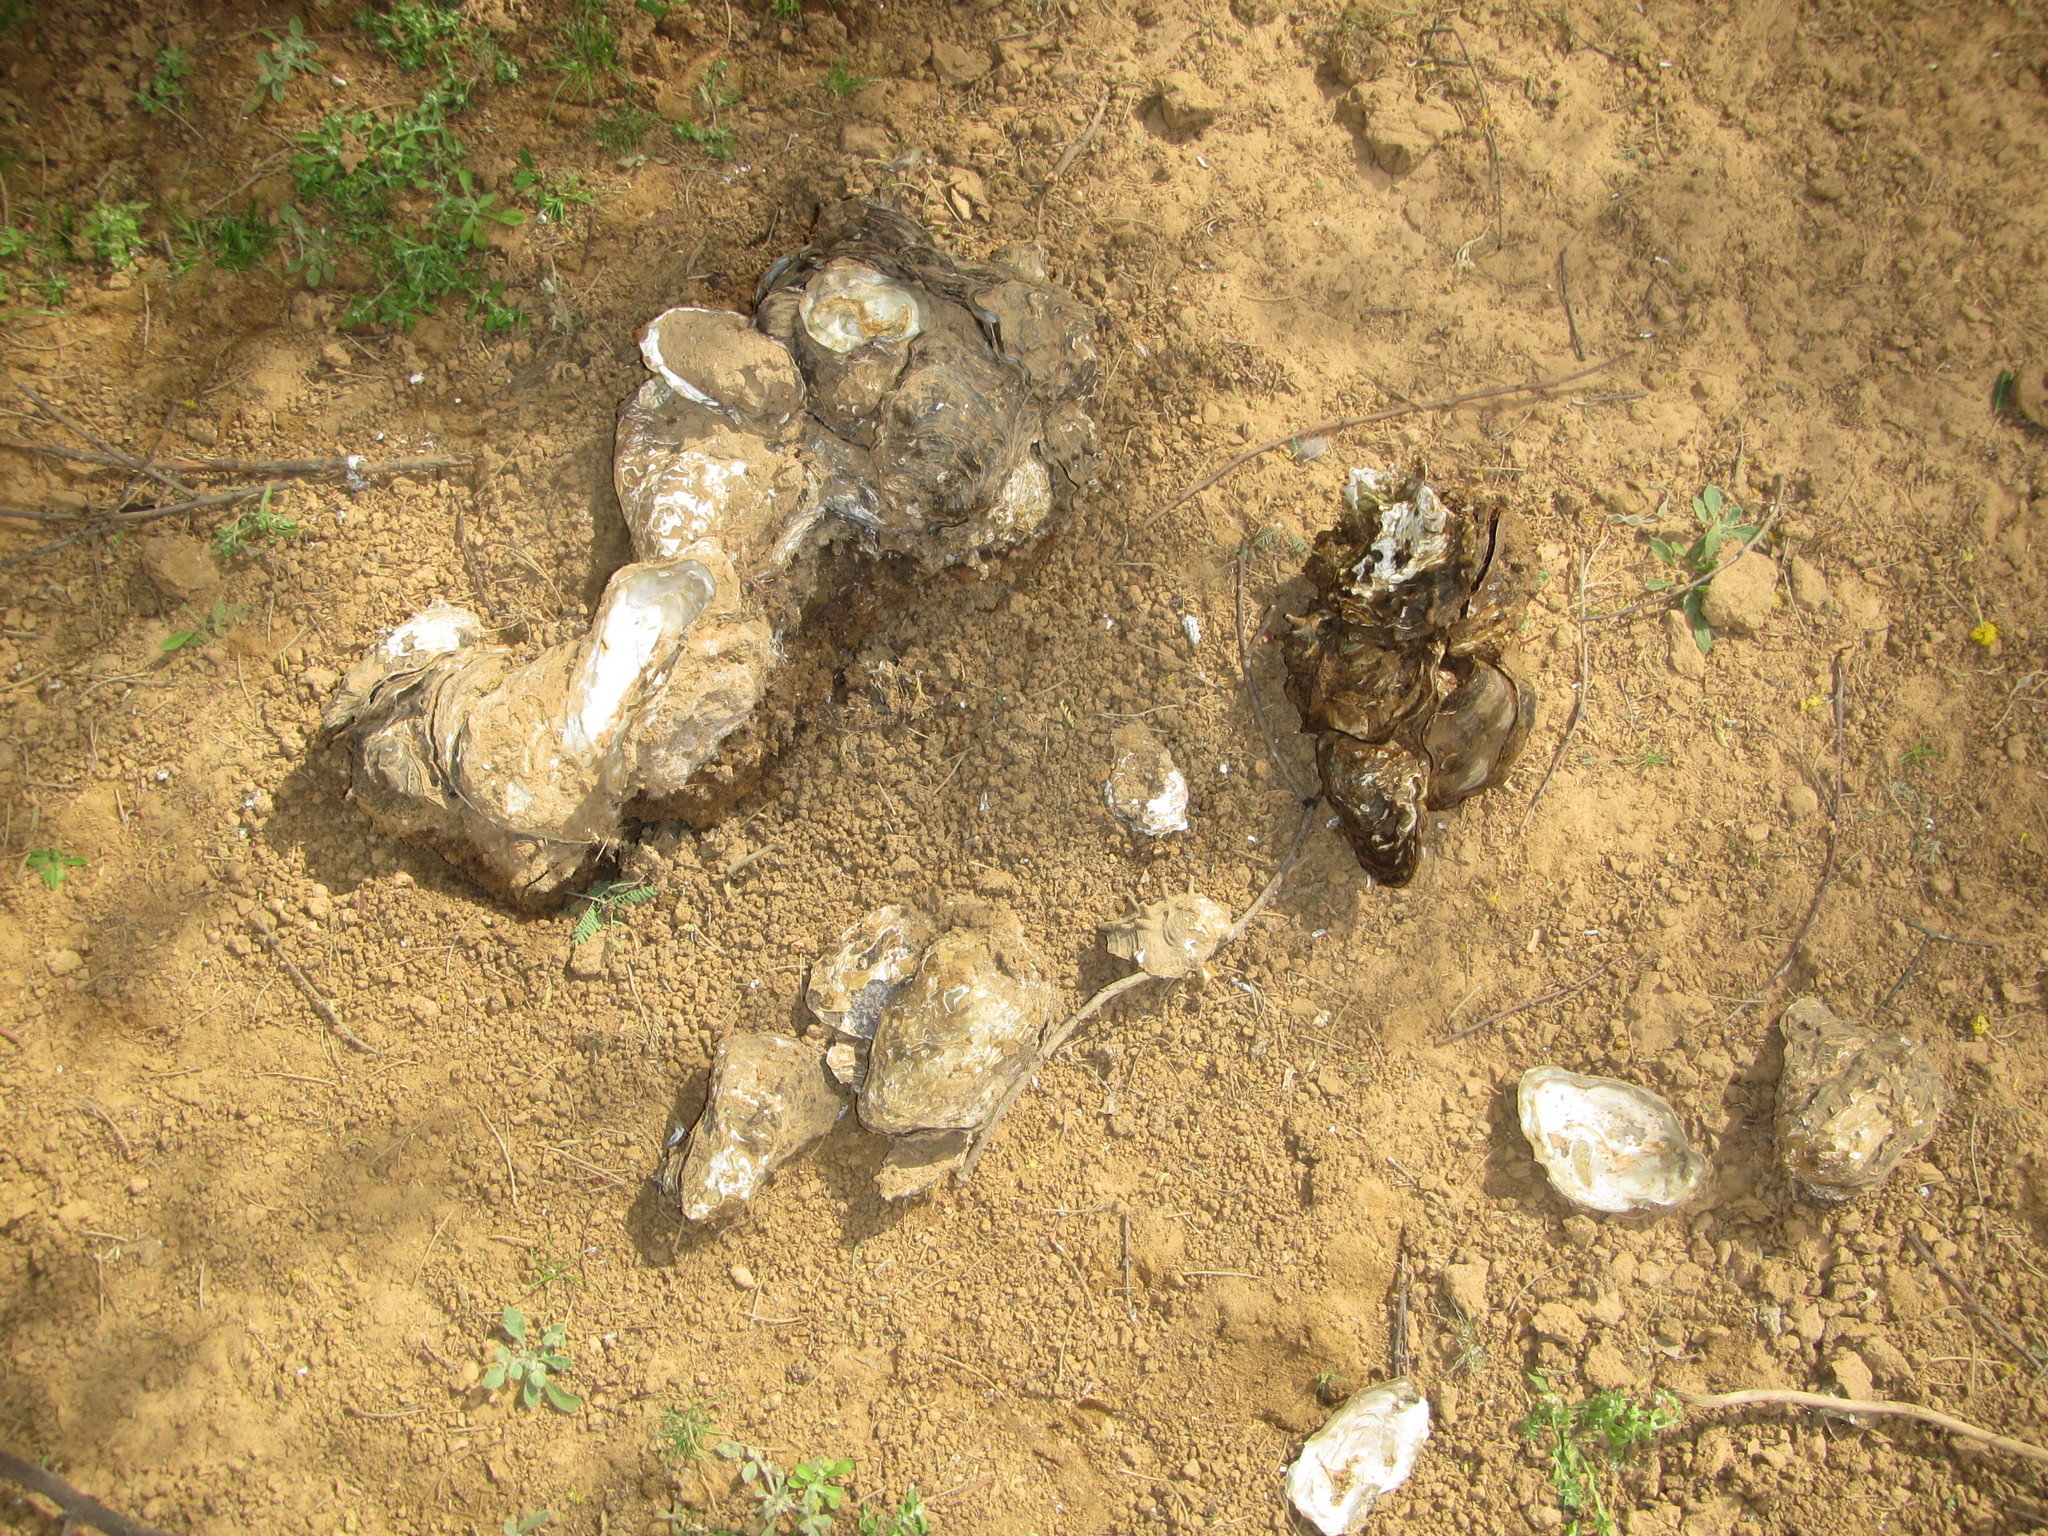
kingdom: Animalia
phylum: Mollusca
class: Bivalvia
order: Unionida
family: Etheriidae
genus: Etheria
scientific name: Etheria elliptica
